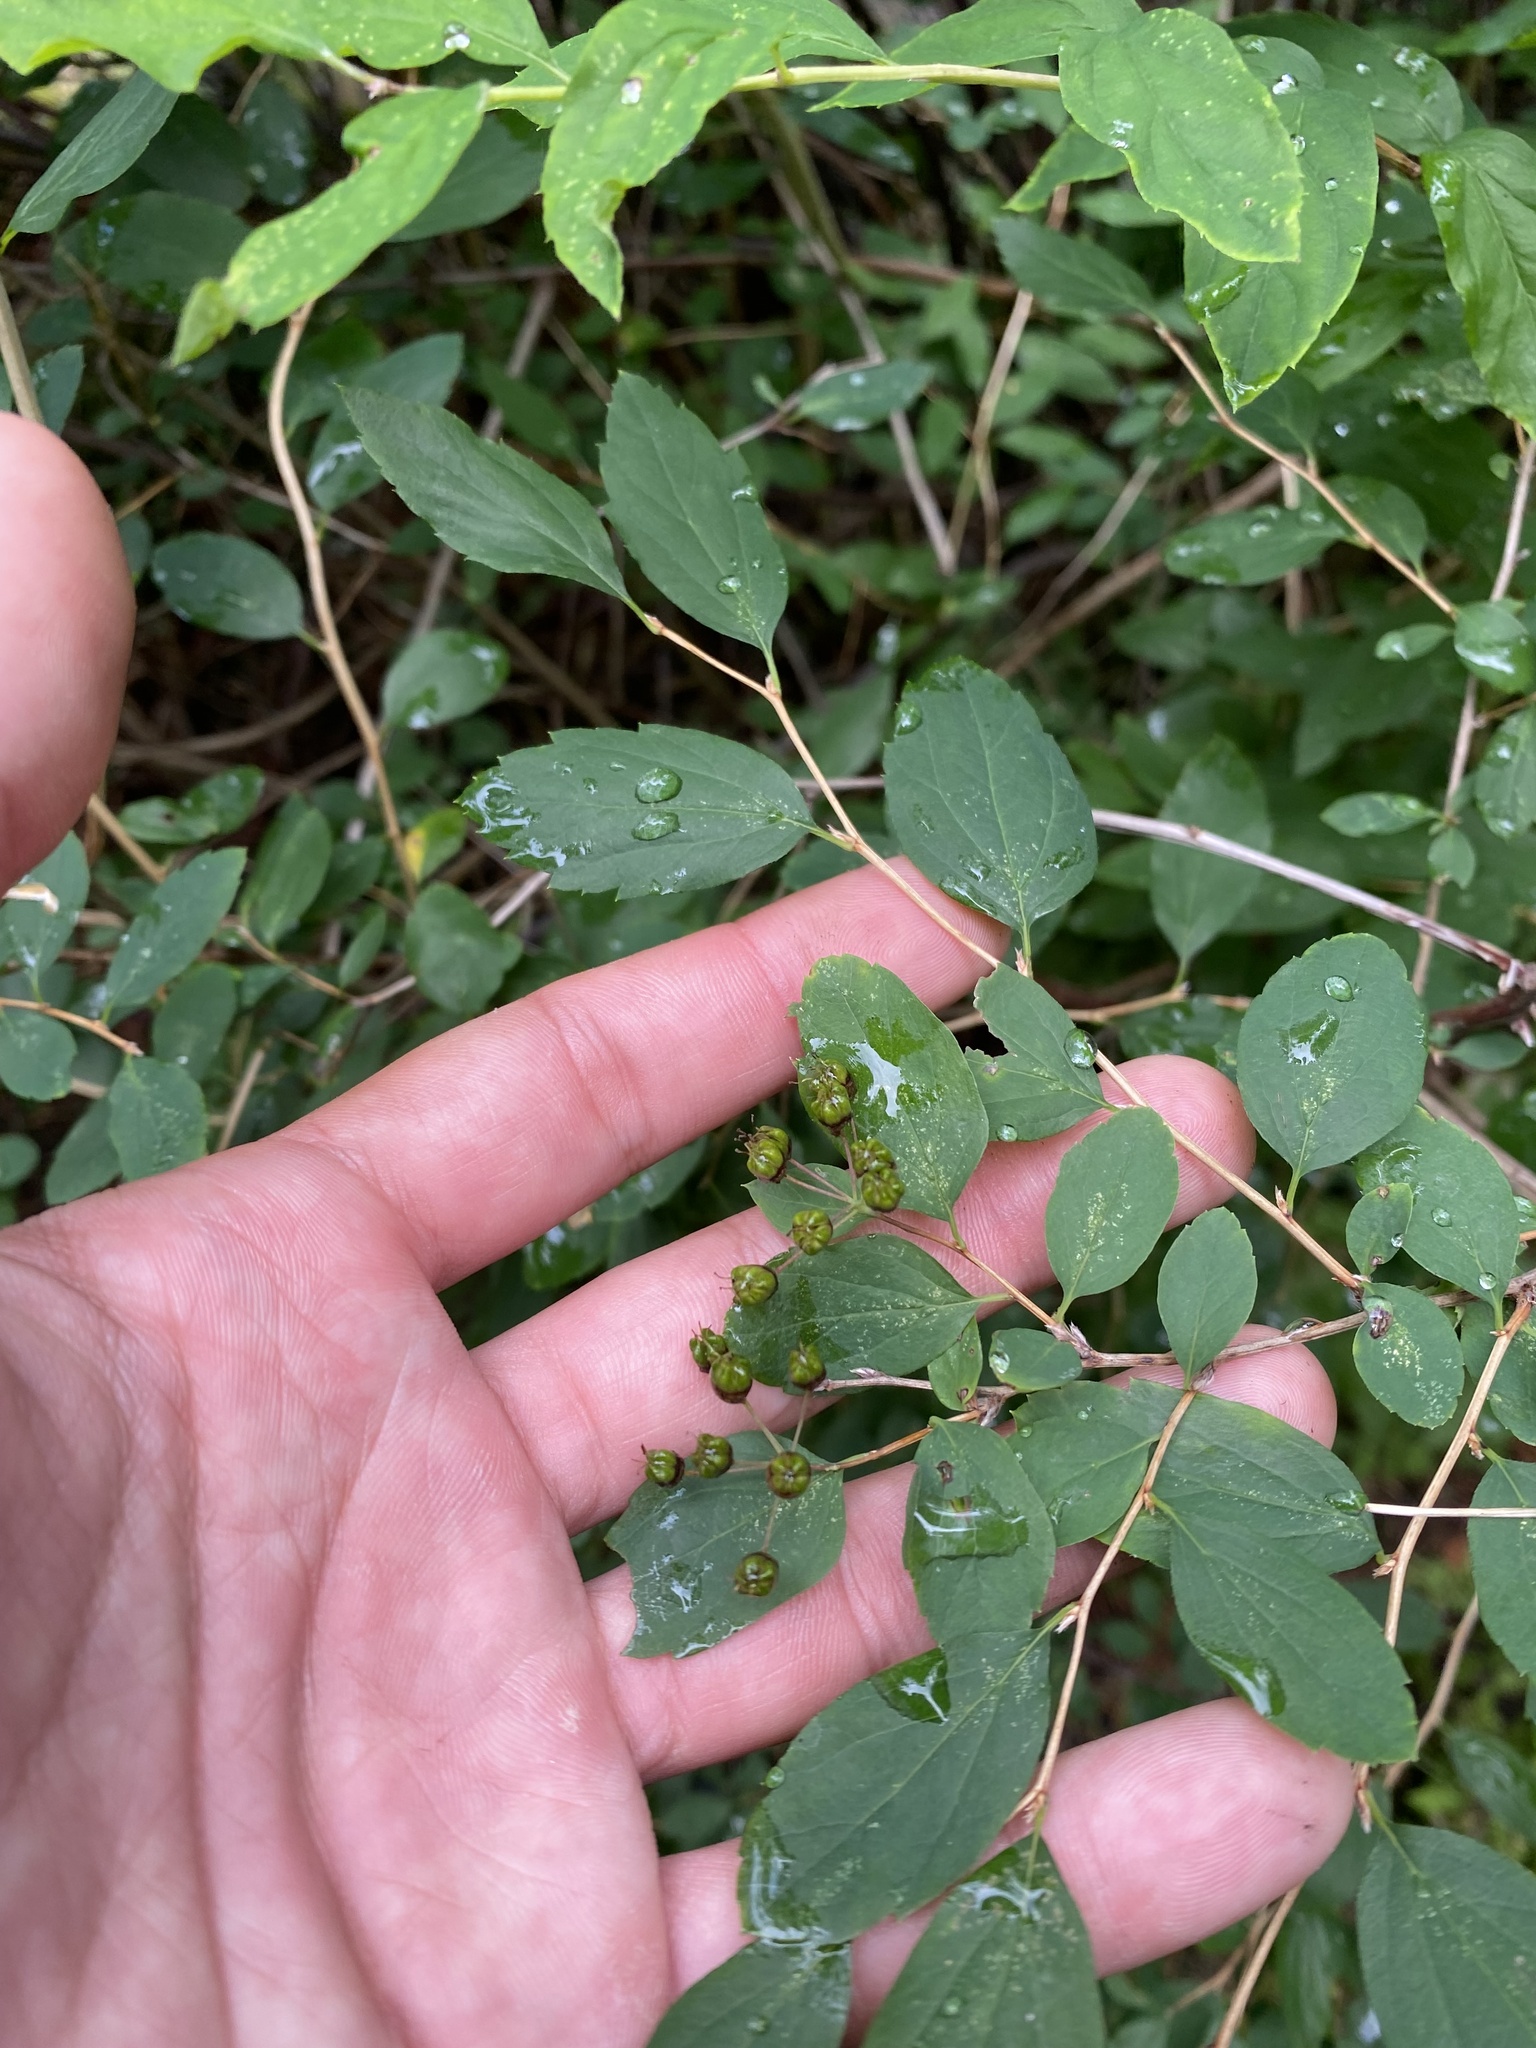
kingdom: Plantae
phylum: Tracheophyta
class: Magnoliopsida
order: Rosales
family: Rosaceae
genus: Spiraea
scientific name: Spiraea chamaedryfolia
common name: Elm-leaved spiraea
